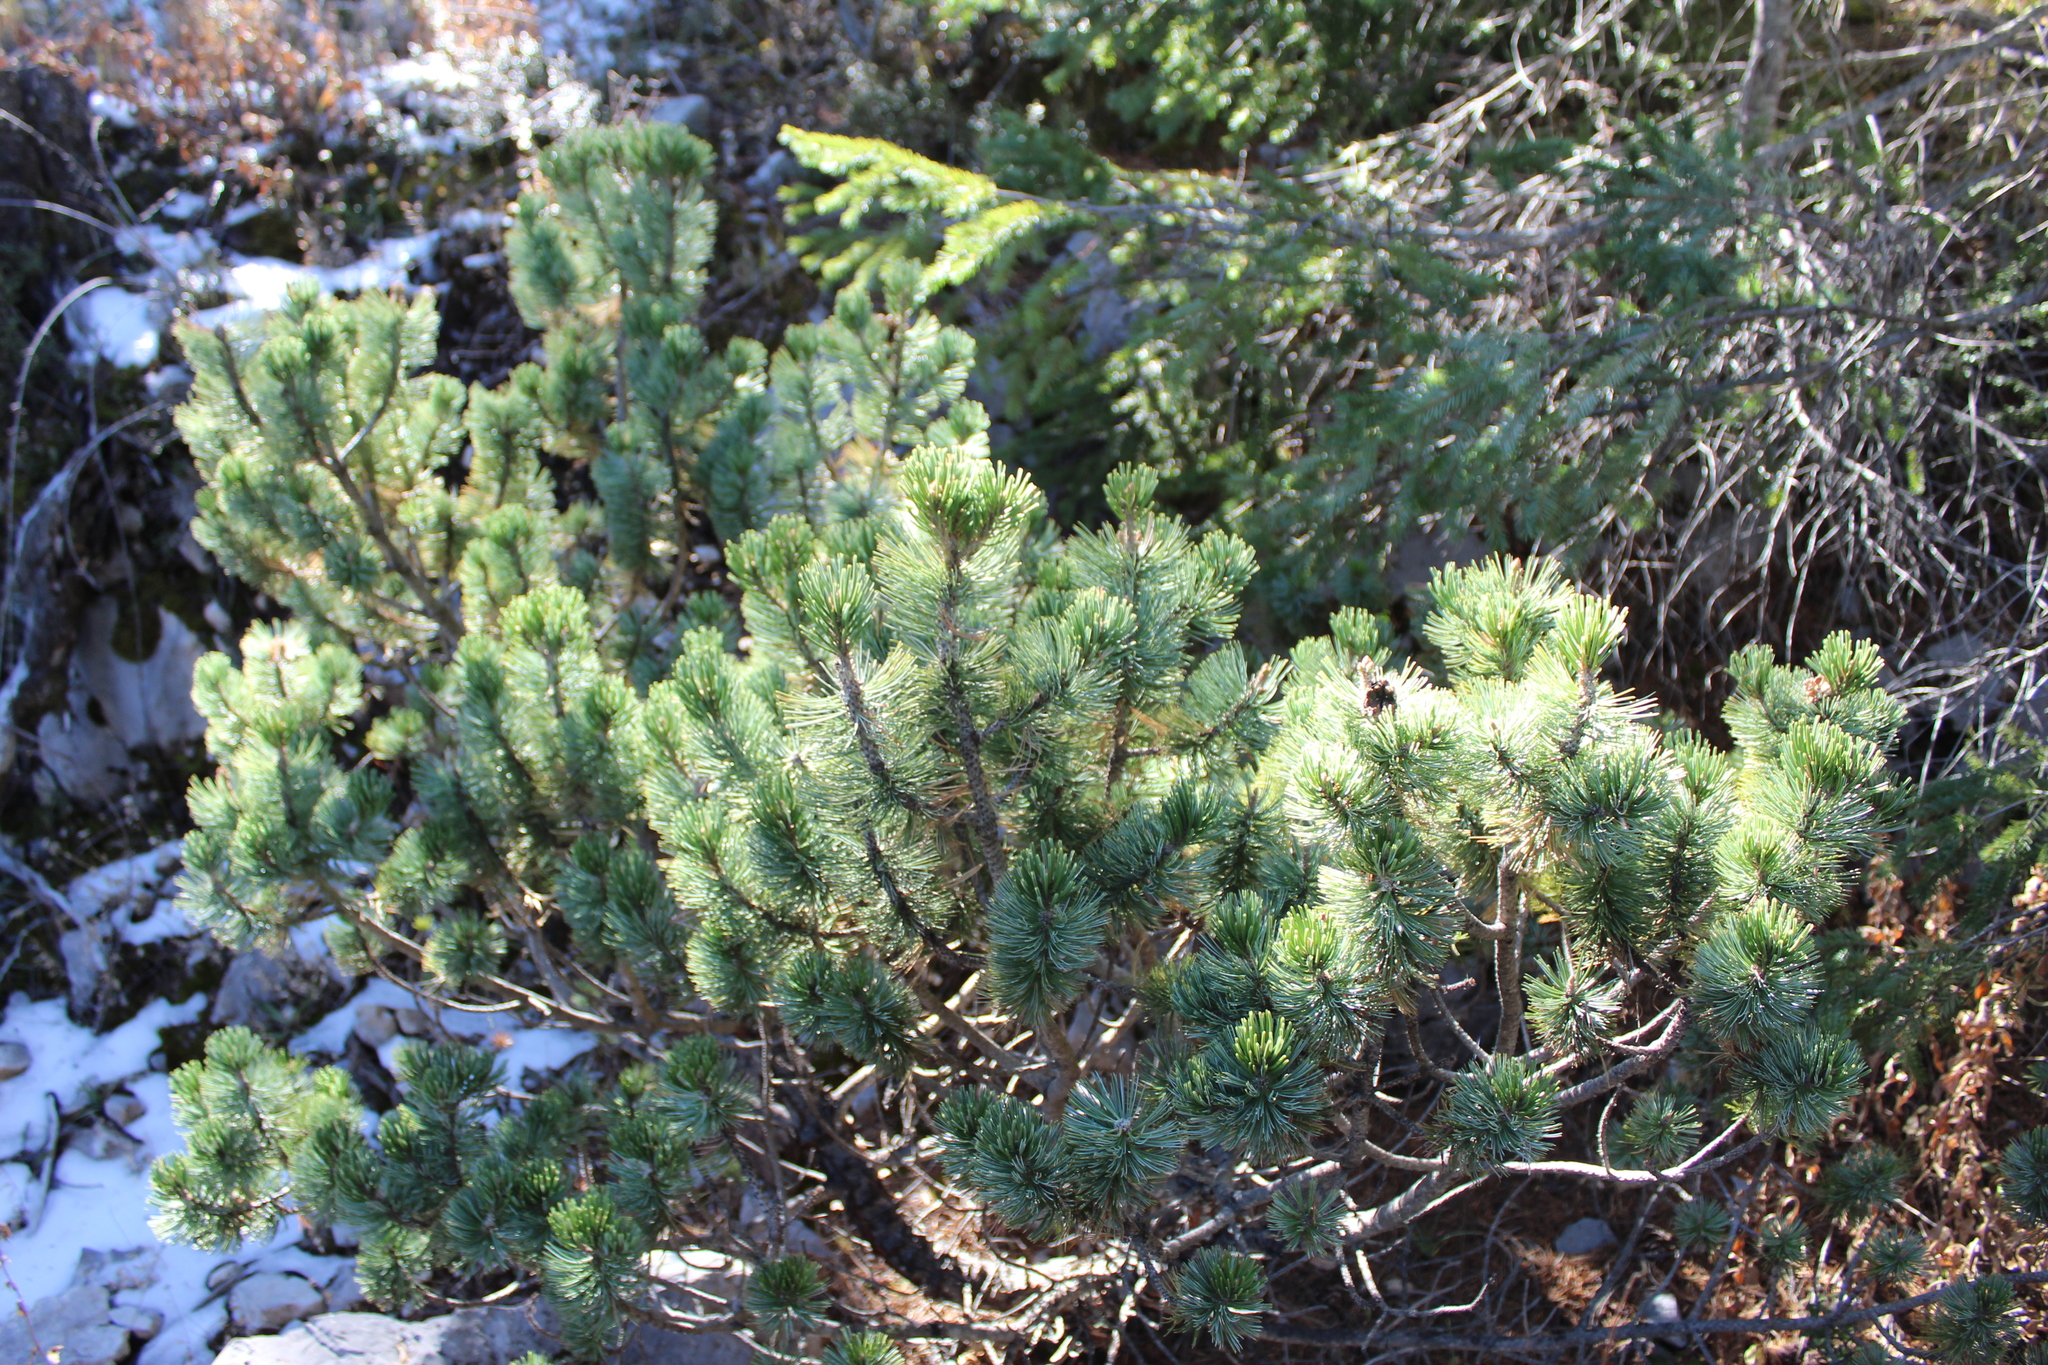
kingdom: Plantae
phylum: Tracheophyta
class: Pinopsida
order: Pinales
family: Pinaceae
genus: Pinus
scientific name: Pinus culminicola
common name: Potosi pinyon pine
